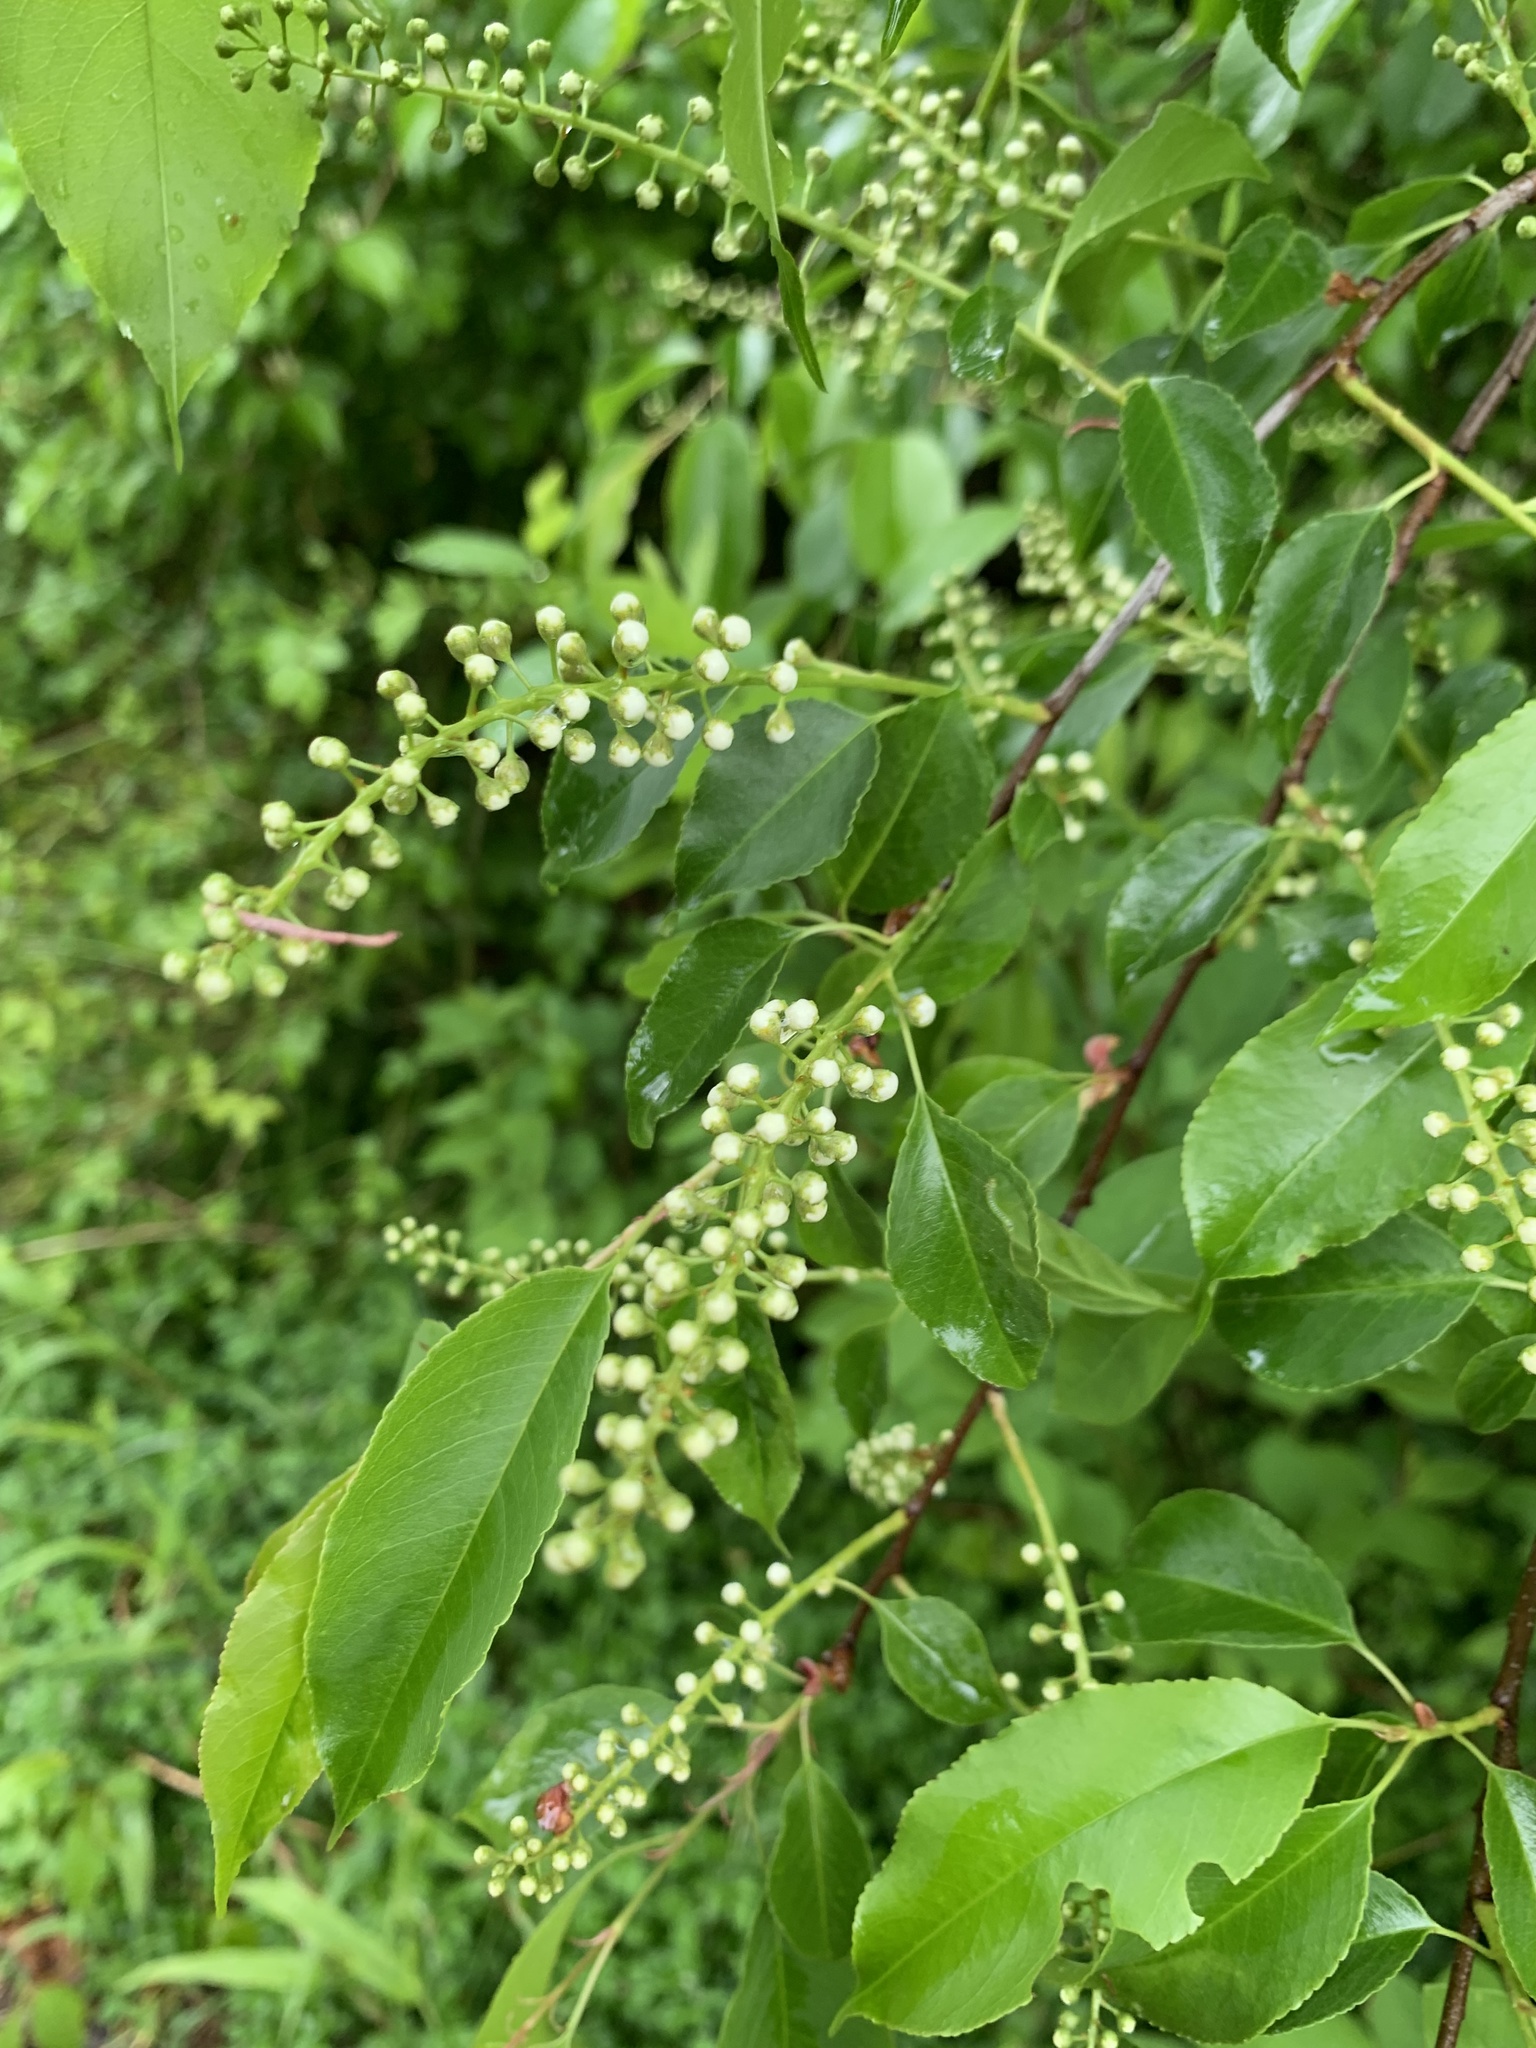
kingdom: Plantae
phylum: Tracheophyta
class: Magnoliopsida
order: Rosales
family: Rosaceae
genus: Prunus
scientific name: Prunus serotina
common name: Black cherry
